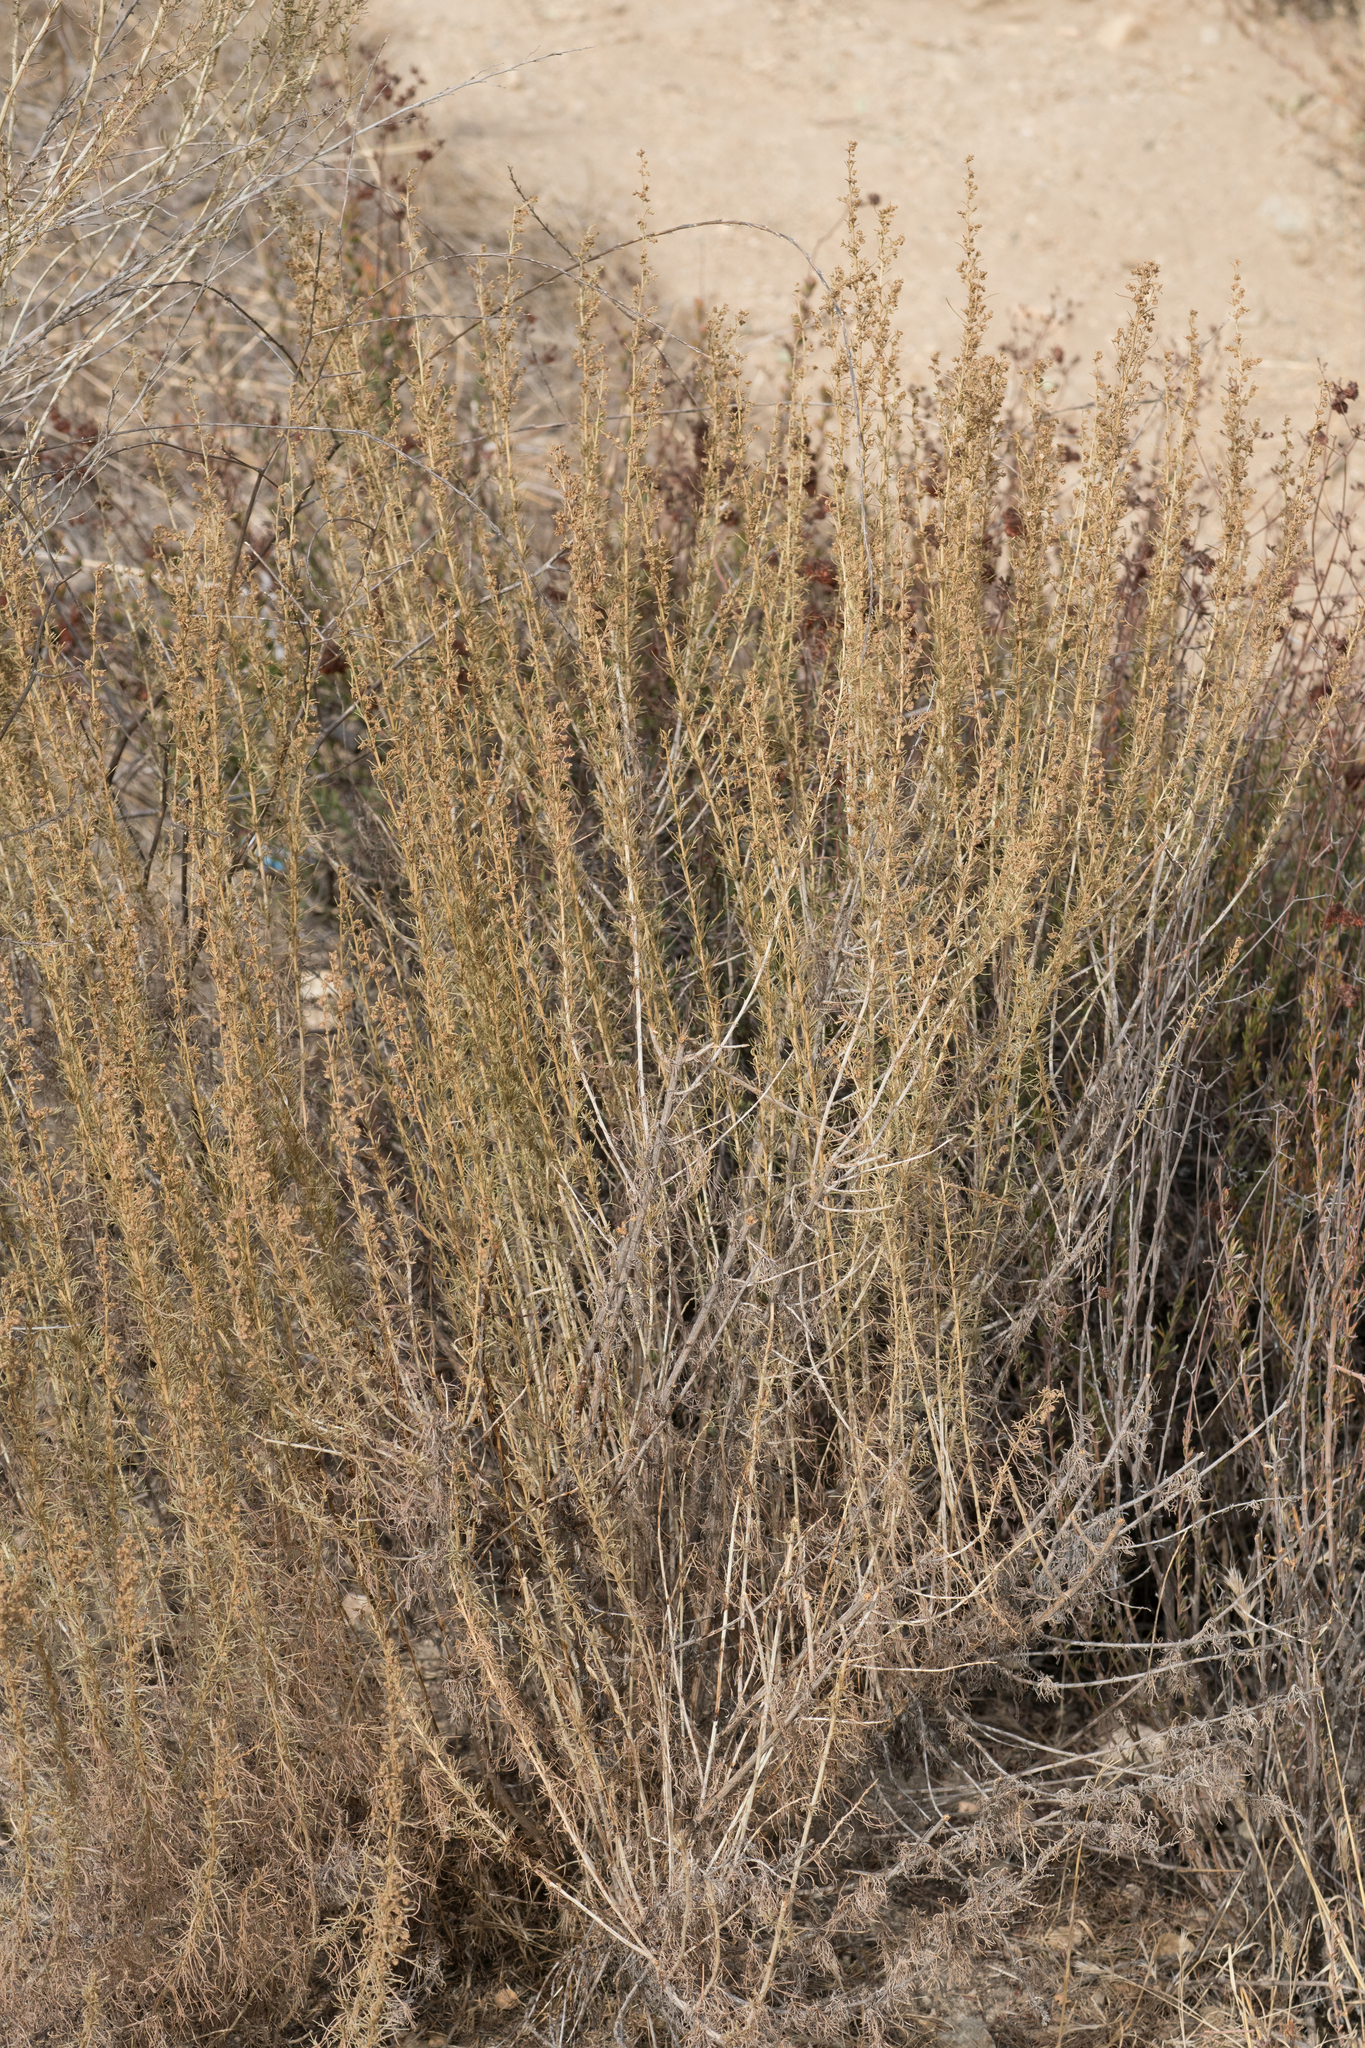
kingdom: Plantae
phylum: Tracheophyta
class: Magnoliopsida
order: Asterales
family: Asteraceae
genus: Artemisia
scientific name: Artemisia californica
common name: California sagebrush
